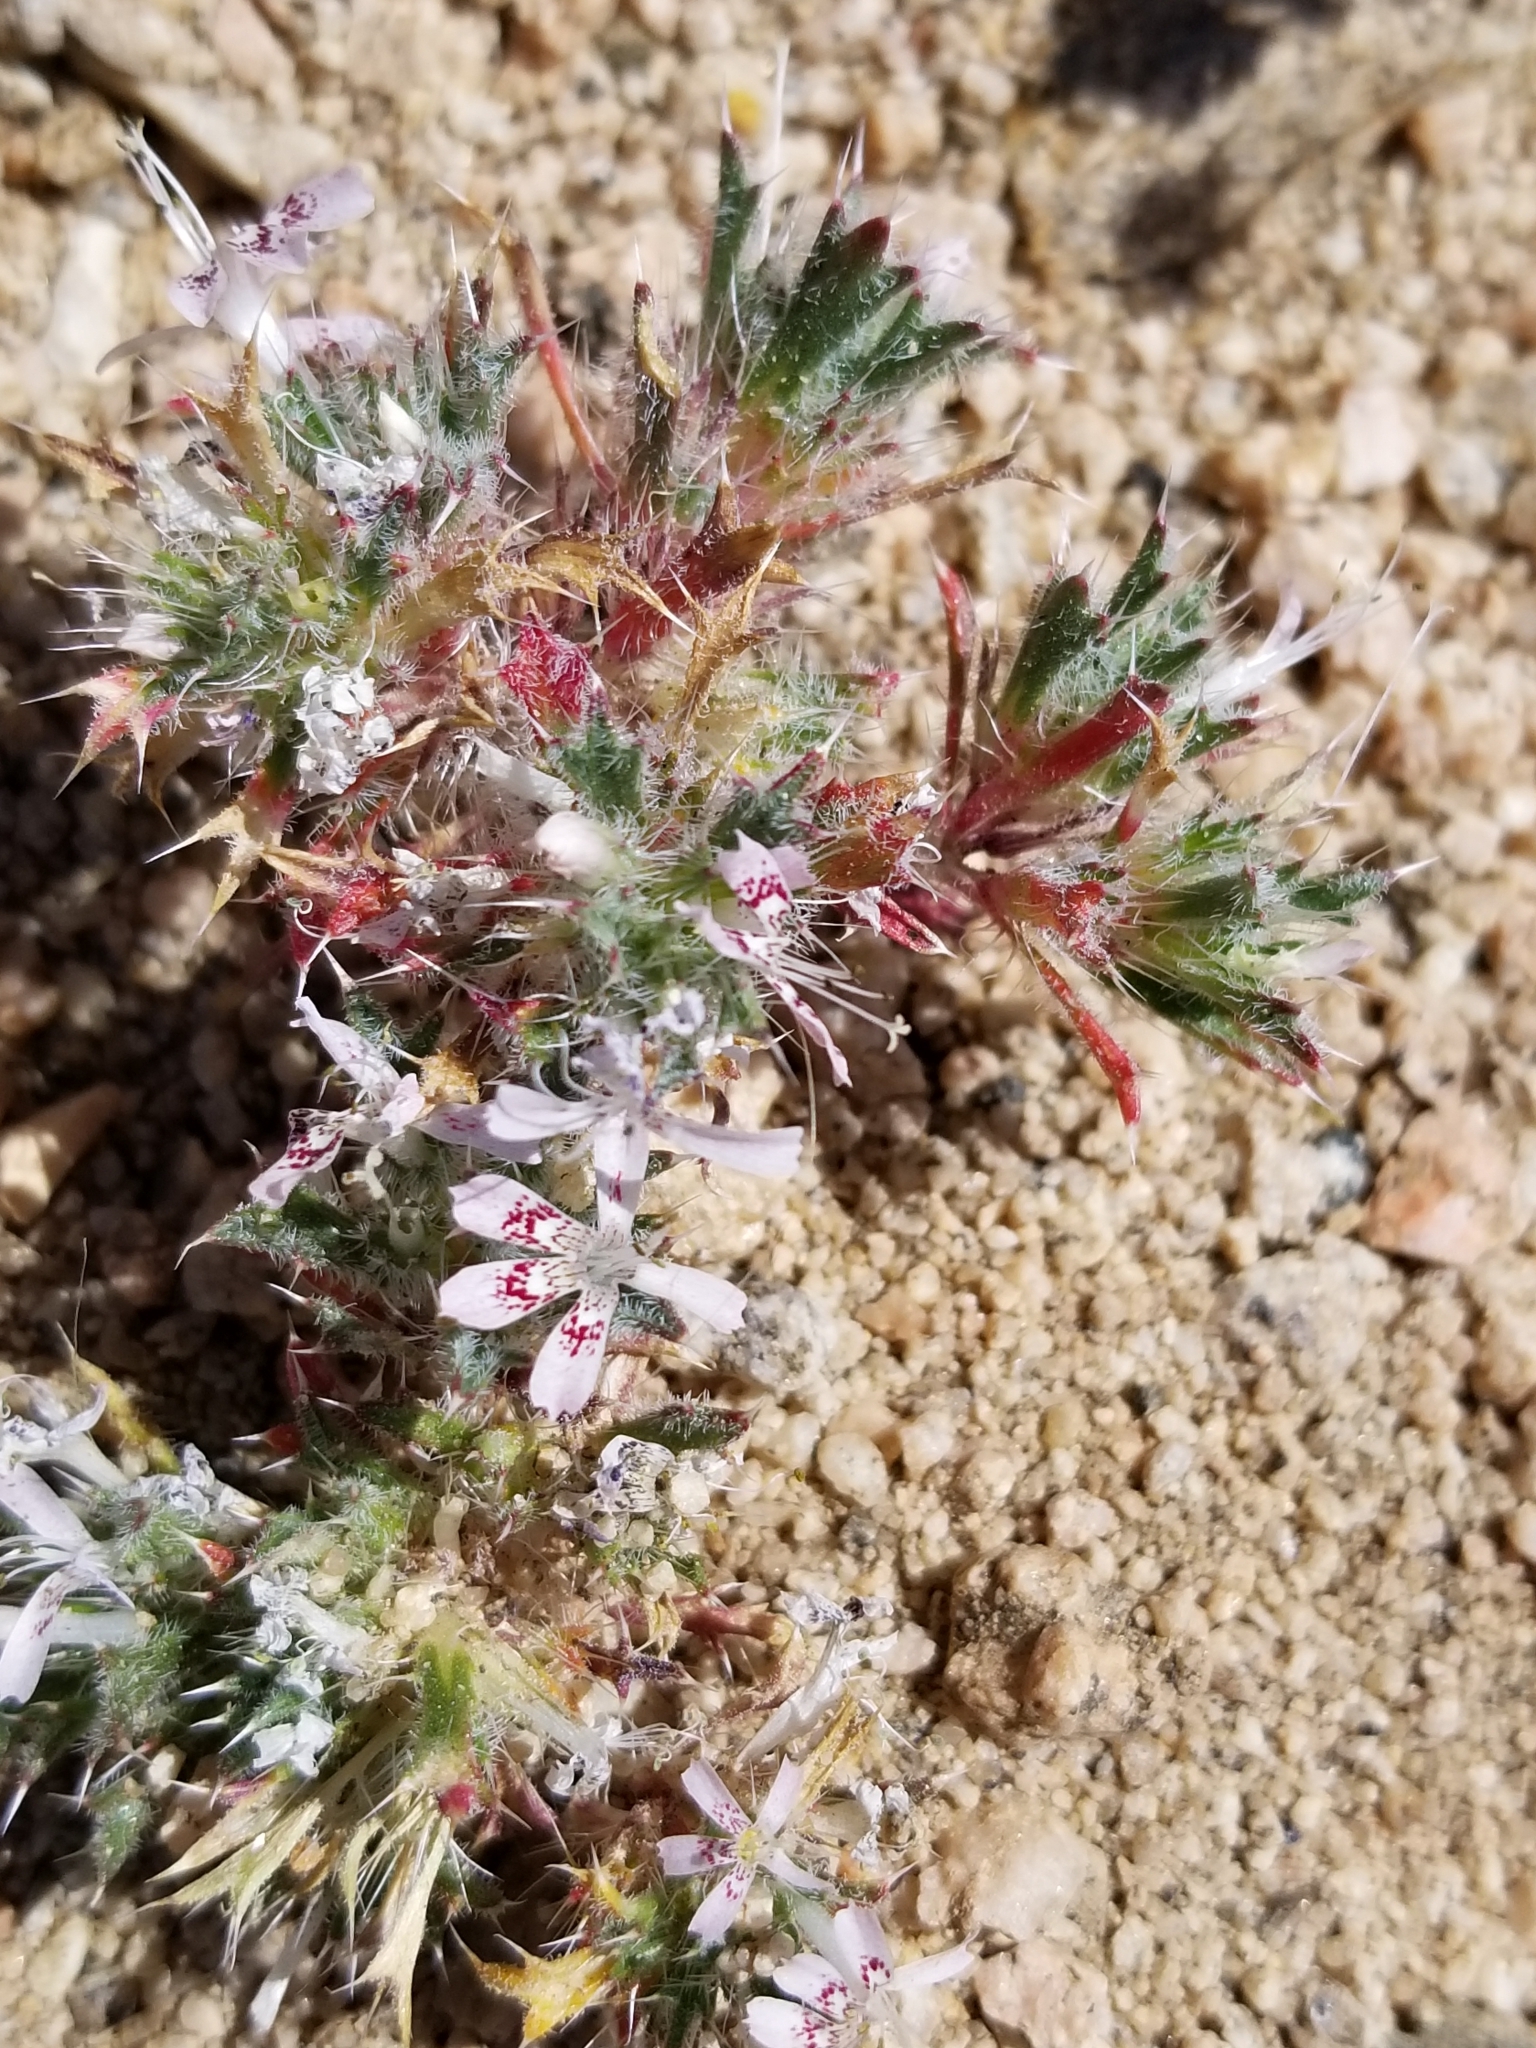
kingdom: Plantae
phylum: Tracheophyta
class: Magnoliopsida
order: Ericales
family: Polemoniaceae
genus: Loeseliastrum
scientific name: Loeseliastrum matthewsii
